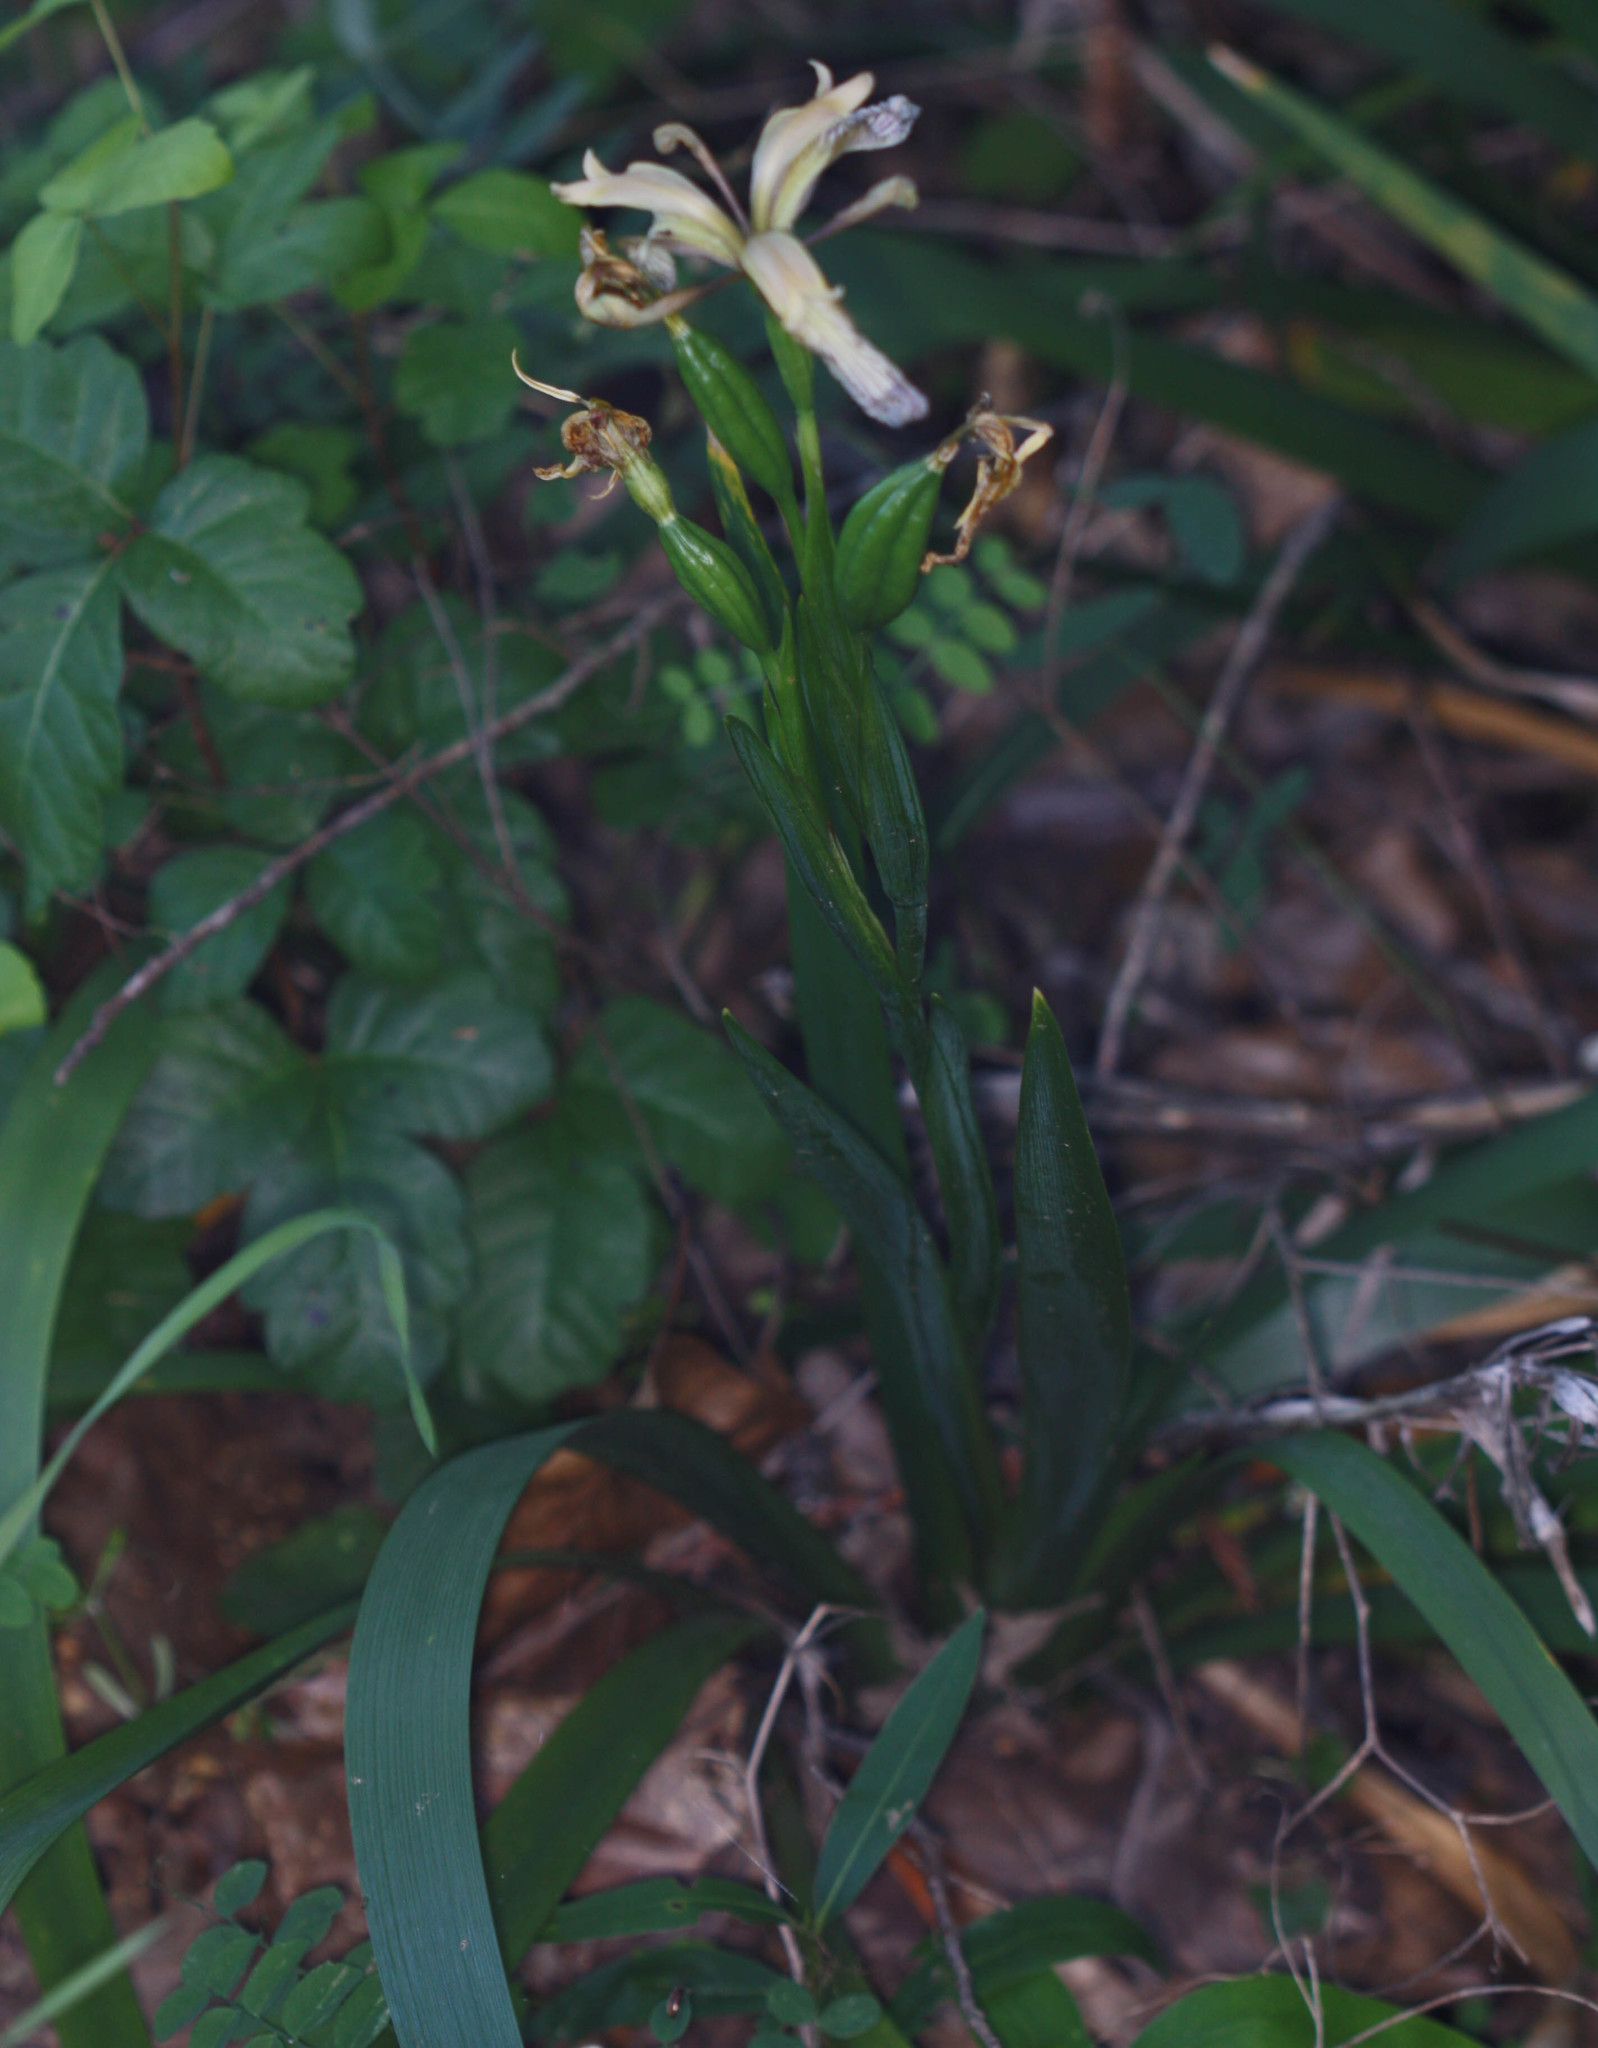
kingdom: Plantae
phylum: Tracheophyta
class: Liliopsida
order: Asparagales
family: Iridaceae
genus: Iris
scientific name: Iris foetidissima
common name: Stinking iris
